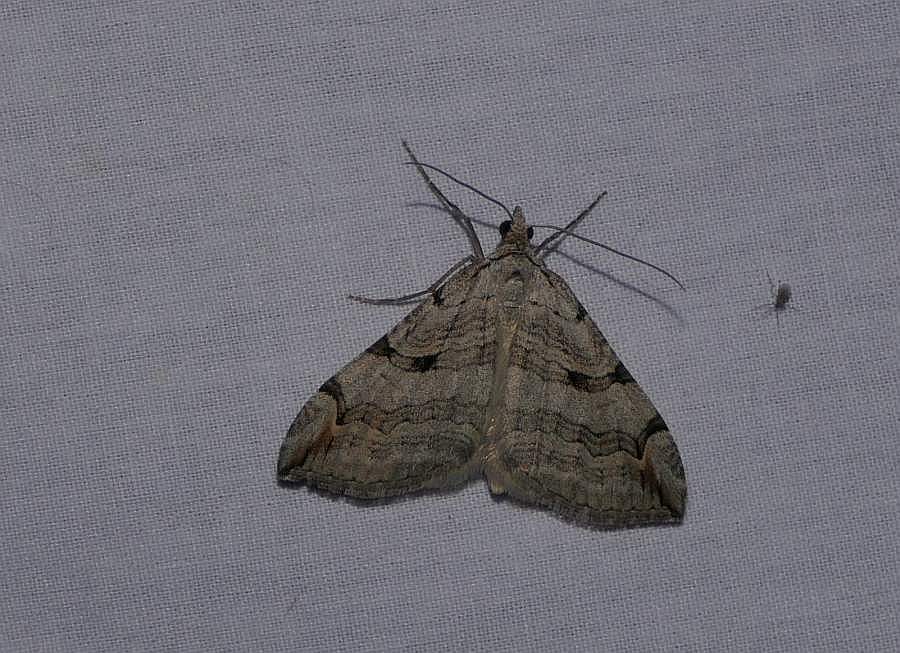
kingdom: Animalia
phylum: Arthropoda
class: Insecta
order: Lepidoptera
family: Geometridae
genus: Aplocera
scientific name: Aplocera plagiata
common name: Treble-bar
